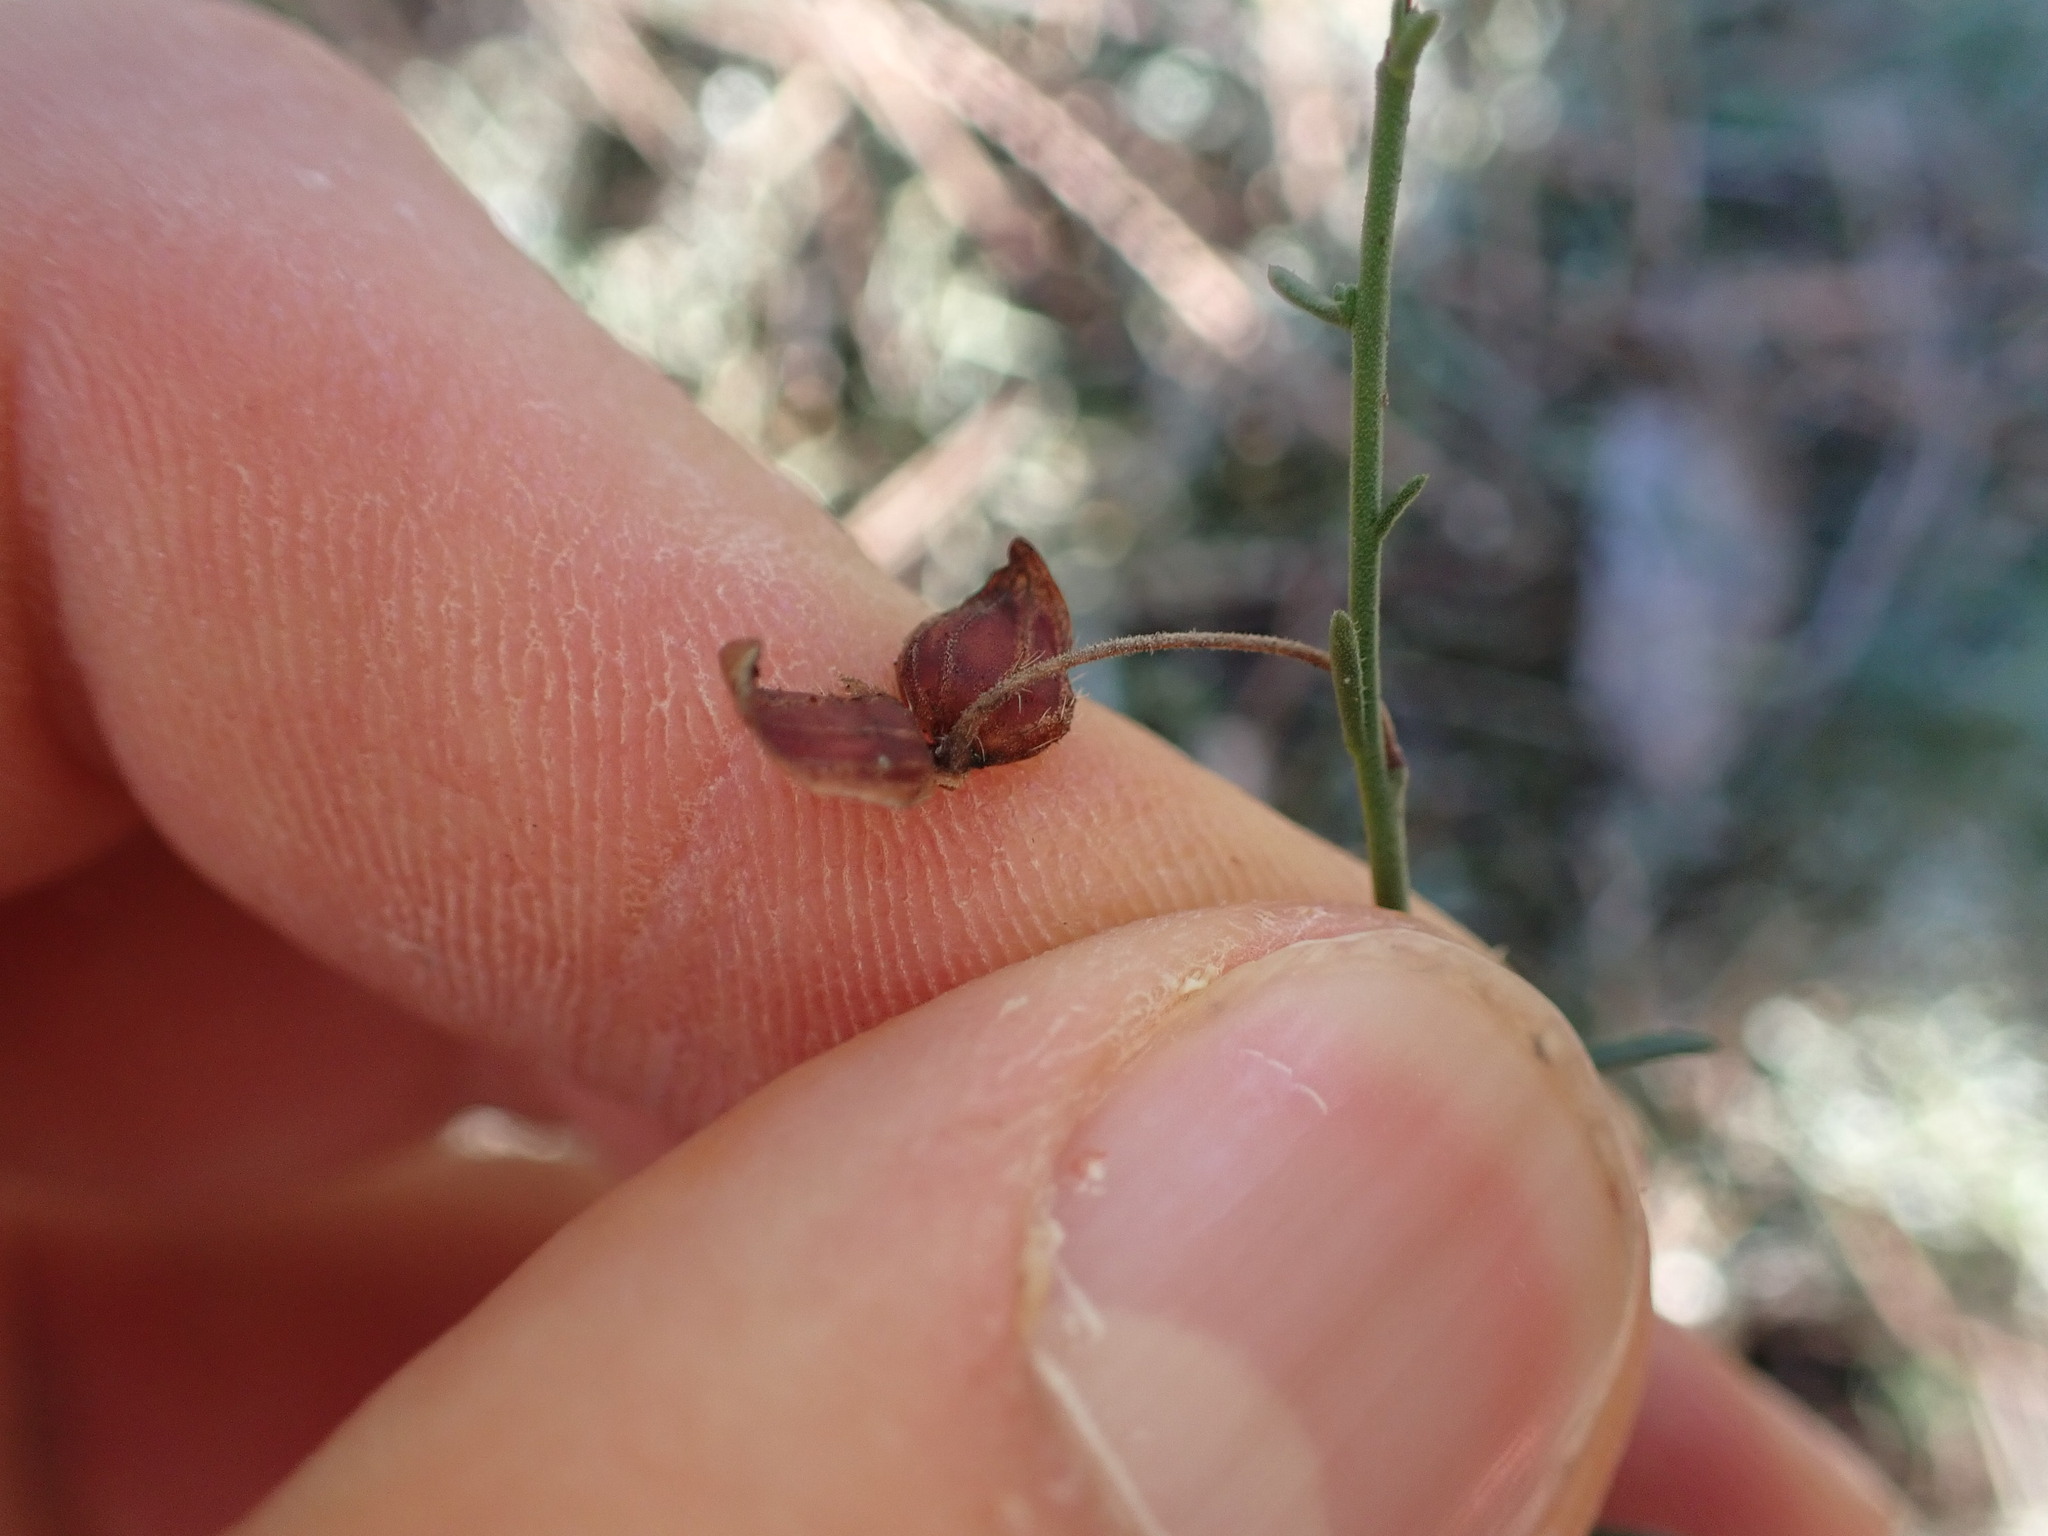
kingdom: Plantae
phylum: Tracheophyta
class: Magnoliopsida
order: Malvales
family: Cistaceae
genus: Fumana
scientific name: Fumana ericifolia
